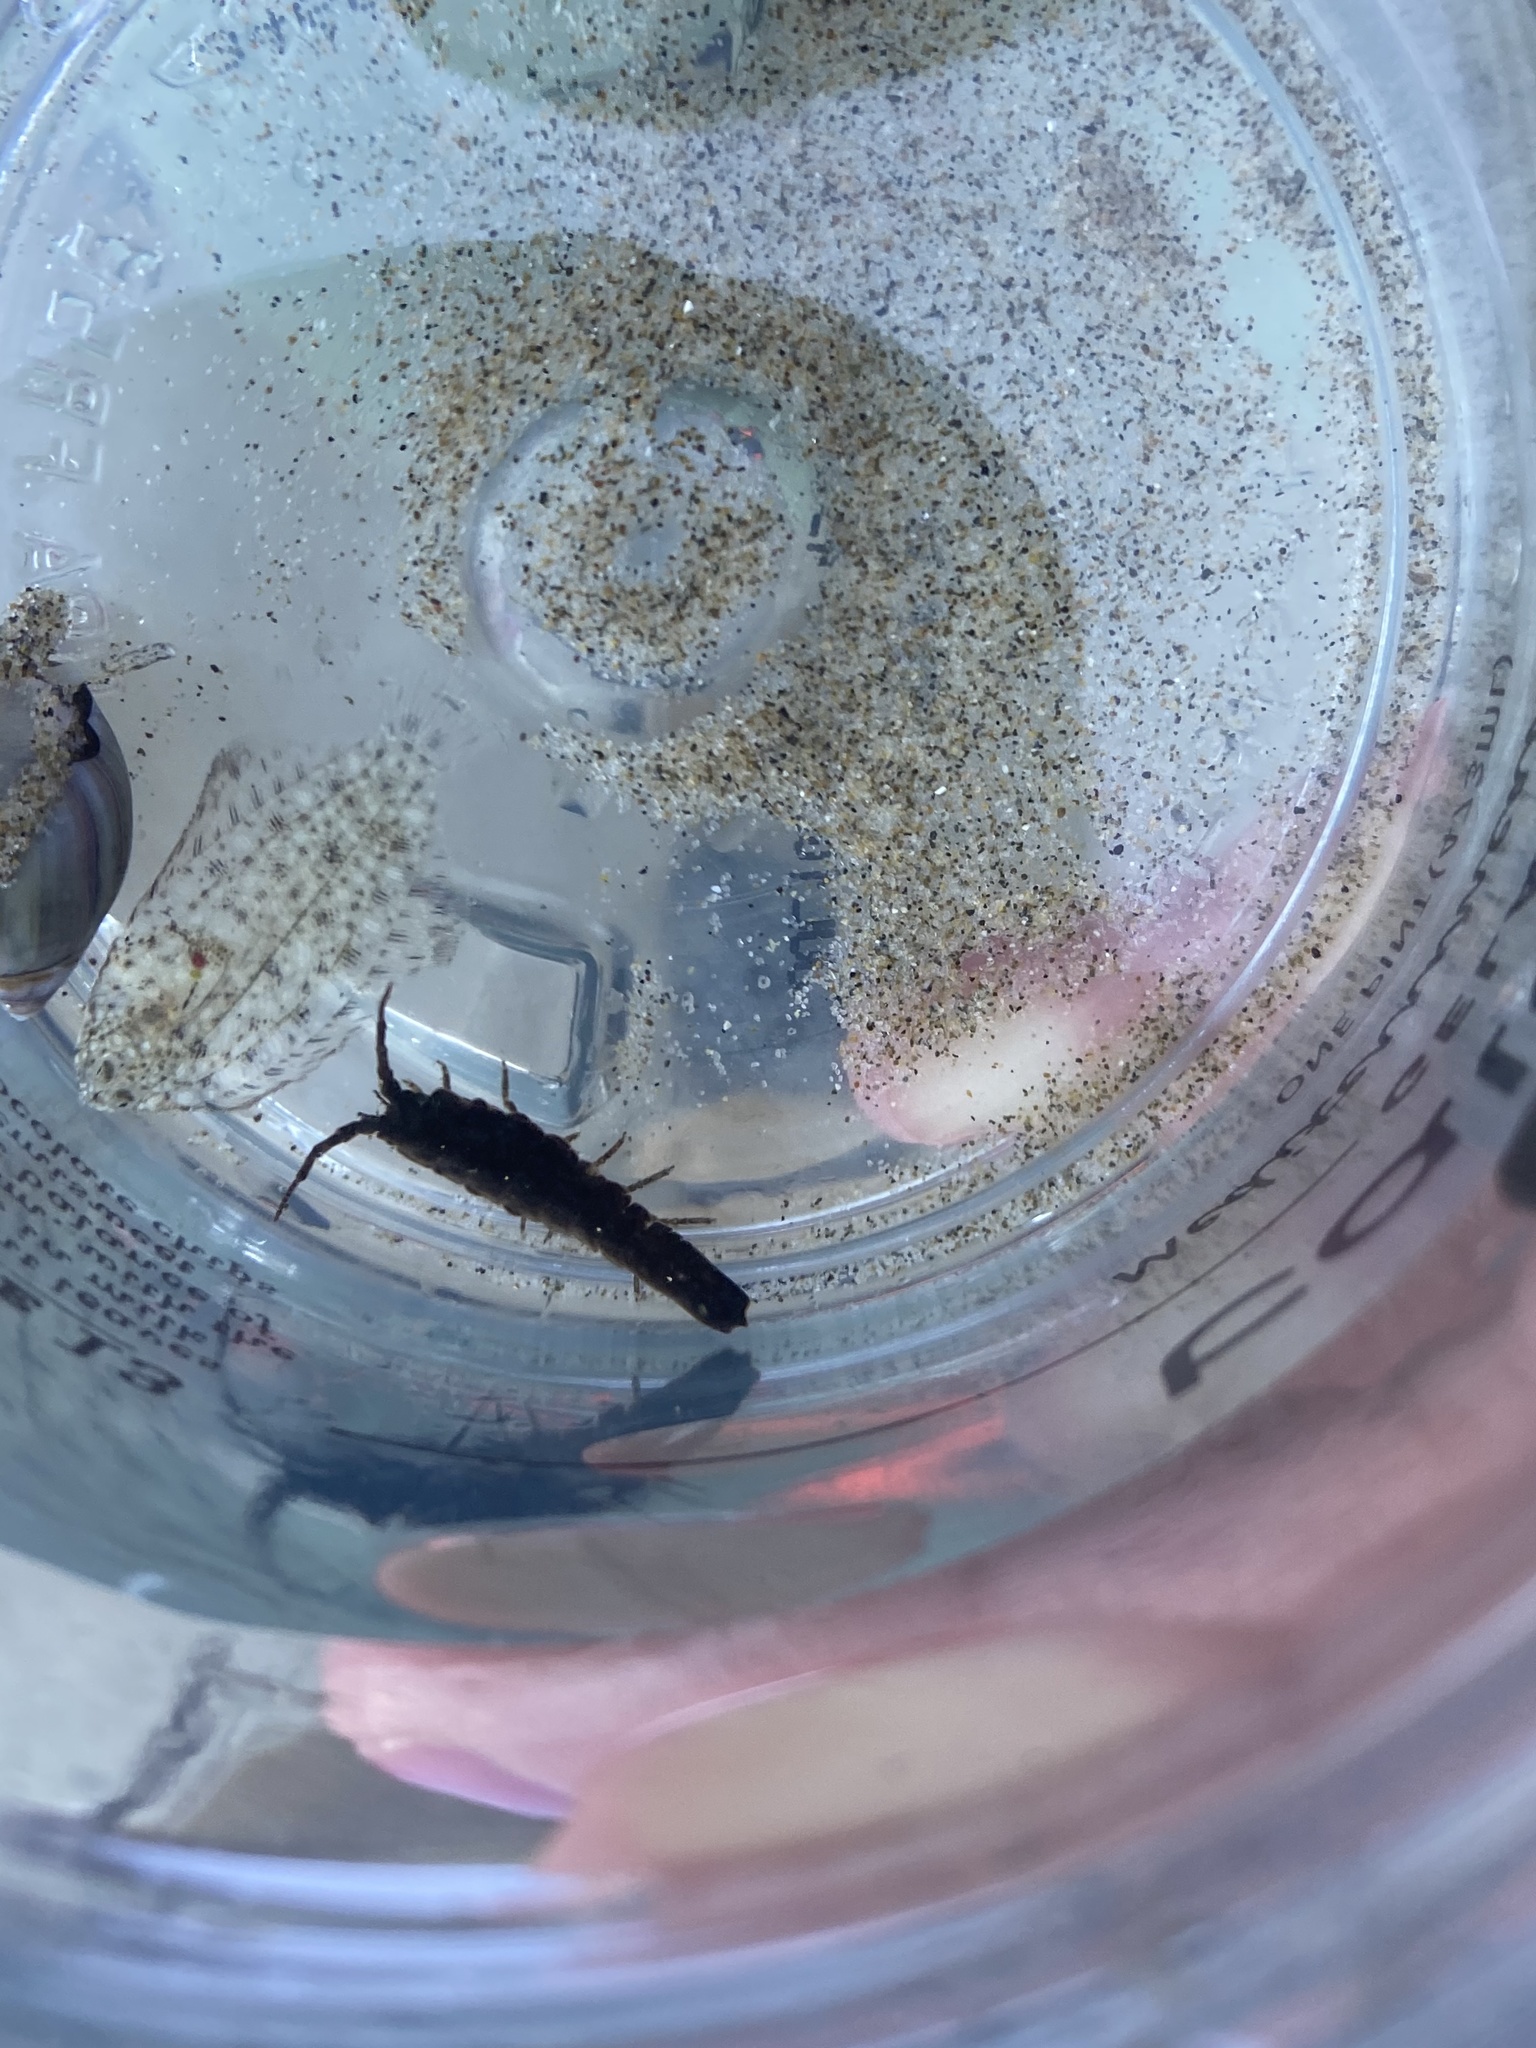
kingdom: Animalia
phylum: Arthropoda
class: Malacostraca
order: Isopoda
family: Idoteidae
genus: Idotea
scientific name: Idotea fewkesi
